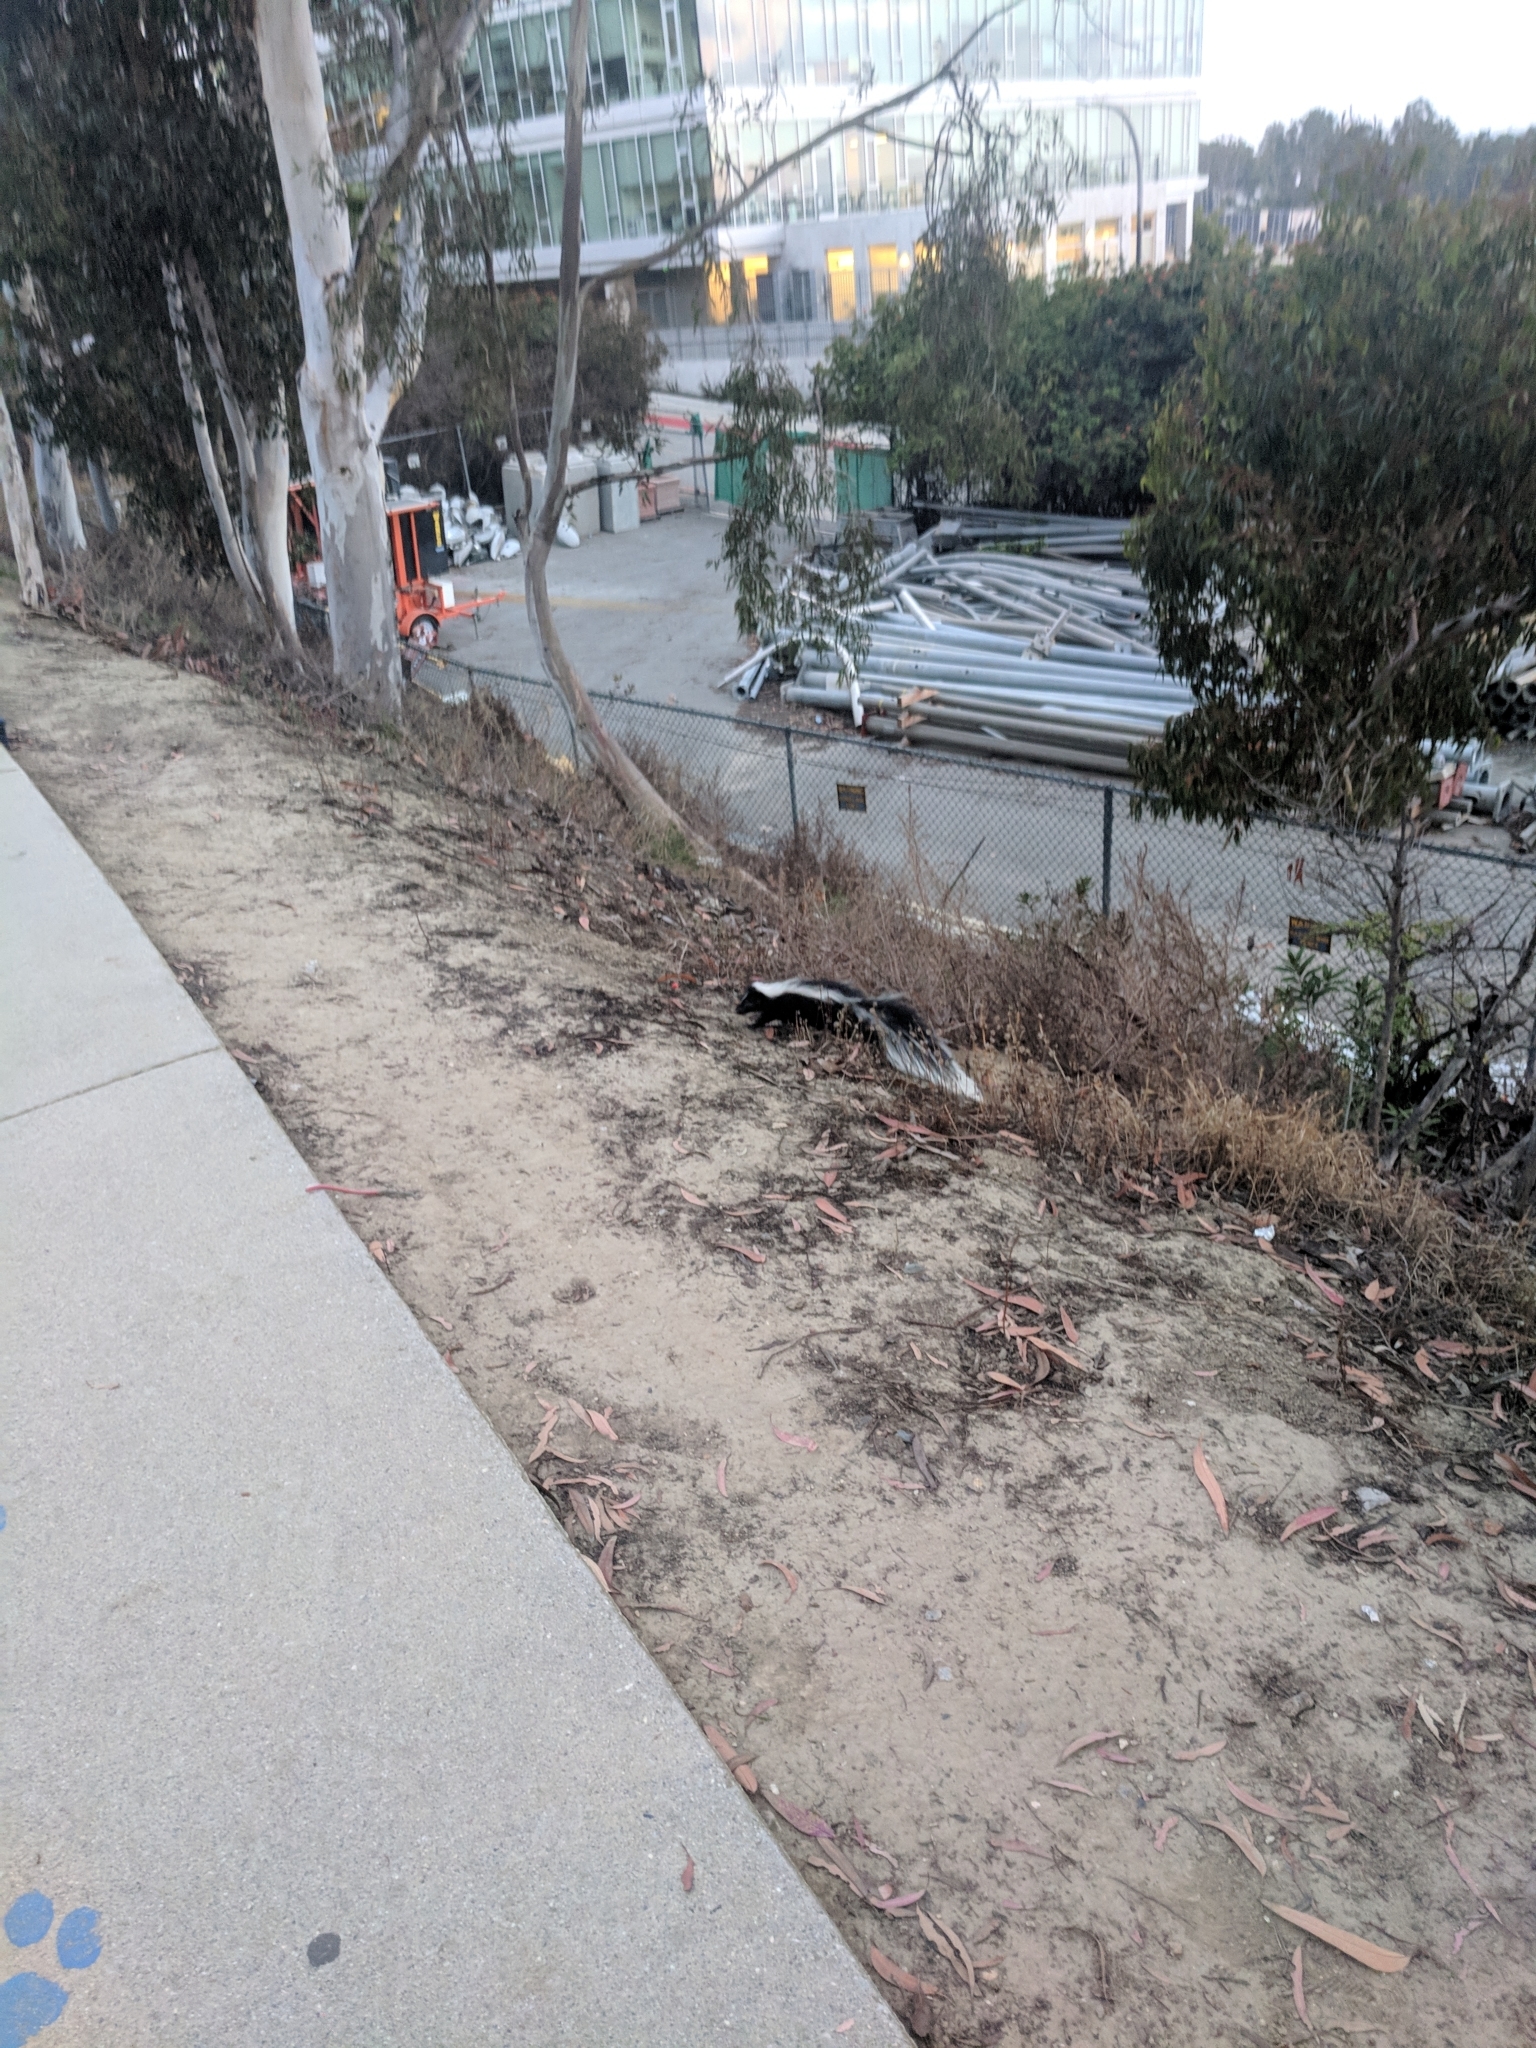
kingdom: Animalia
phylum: Chordata
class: Mammalia
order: Carnivora
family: Mephitidae
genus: Mephitis
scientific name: Mephitis mephitis
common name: Striped skunk
